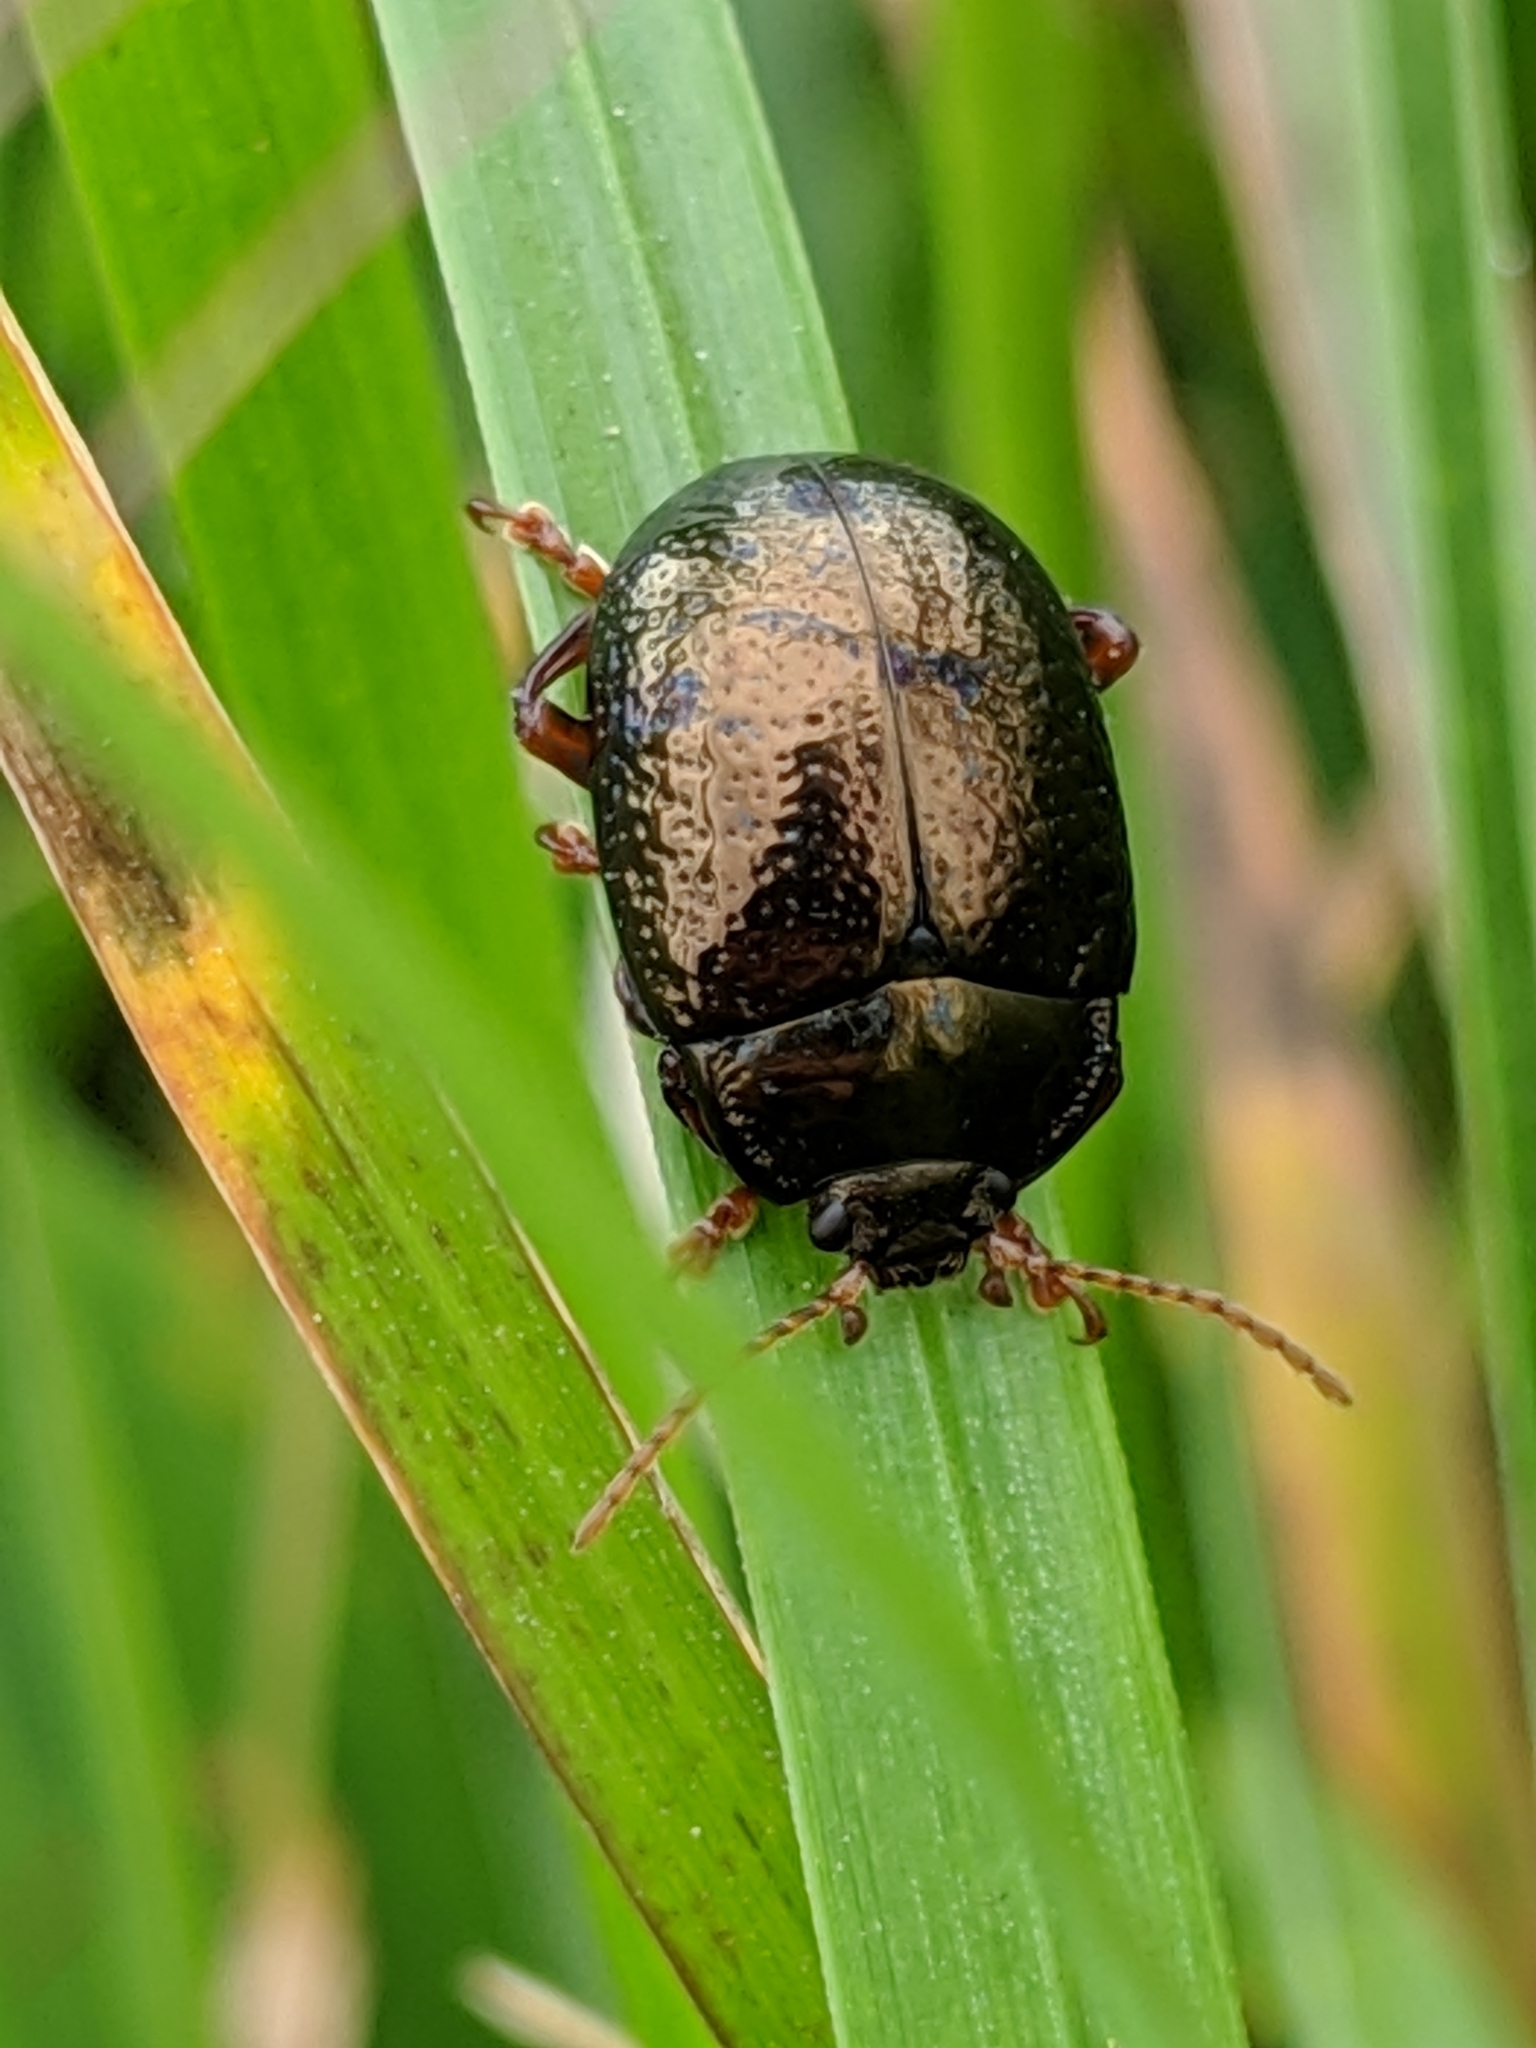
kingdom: Animalia
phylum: Arthropoda
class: Insecta
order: Coleoptera
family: Chrysomelidae
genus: Chrysolina
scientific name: Chrysolina bankii
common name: Leaf beetle
